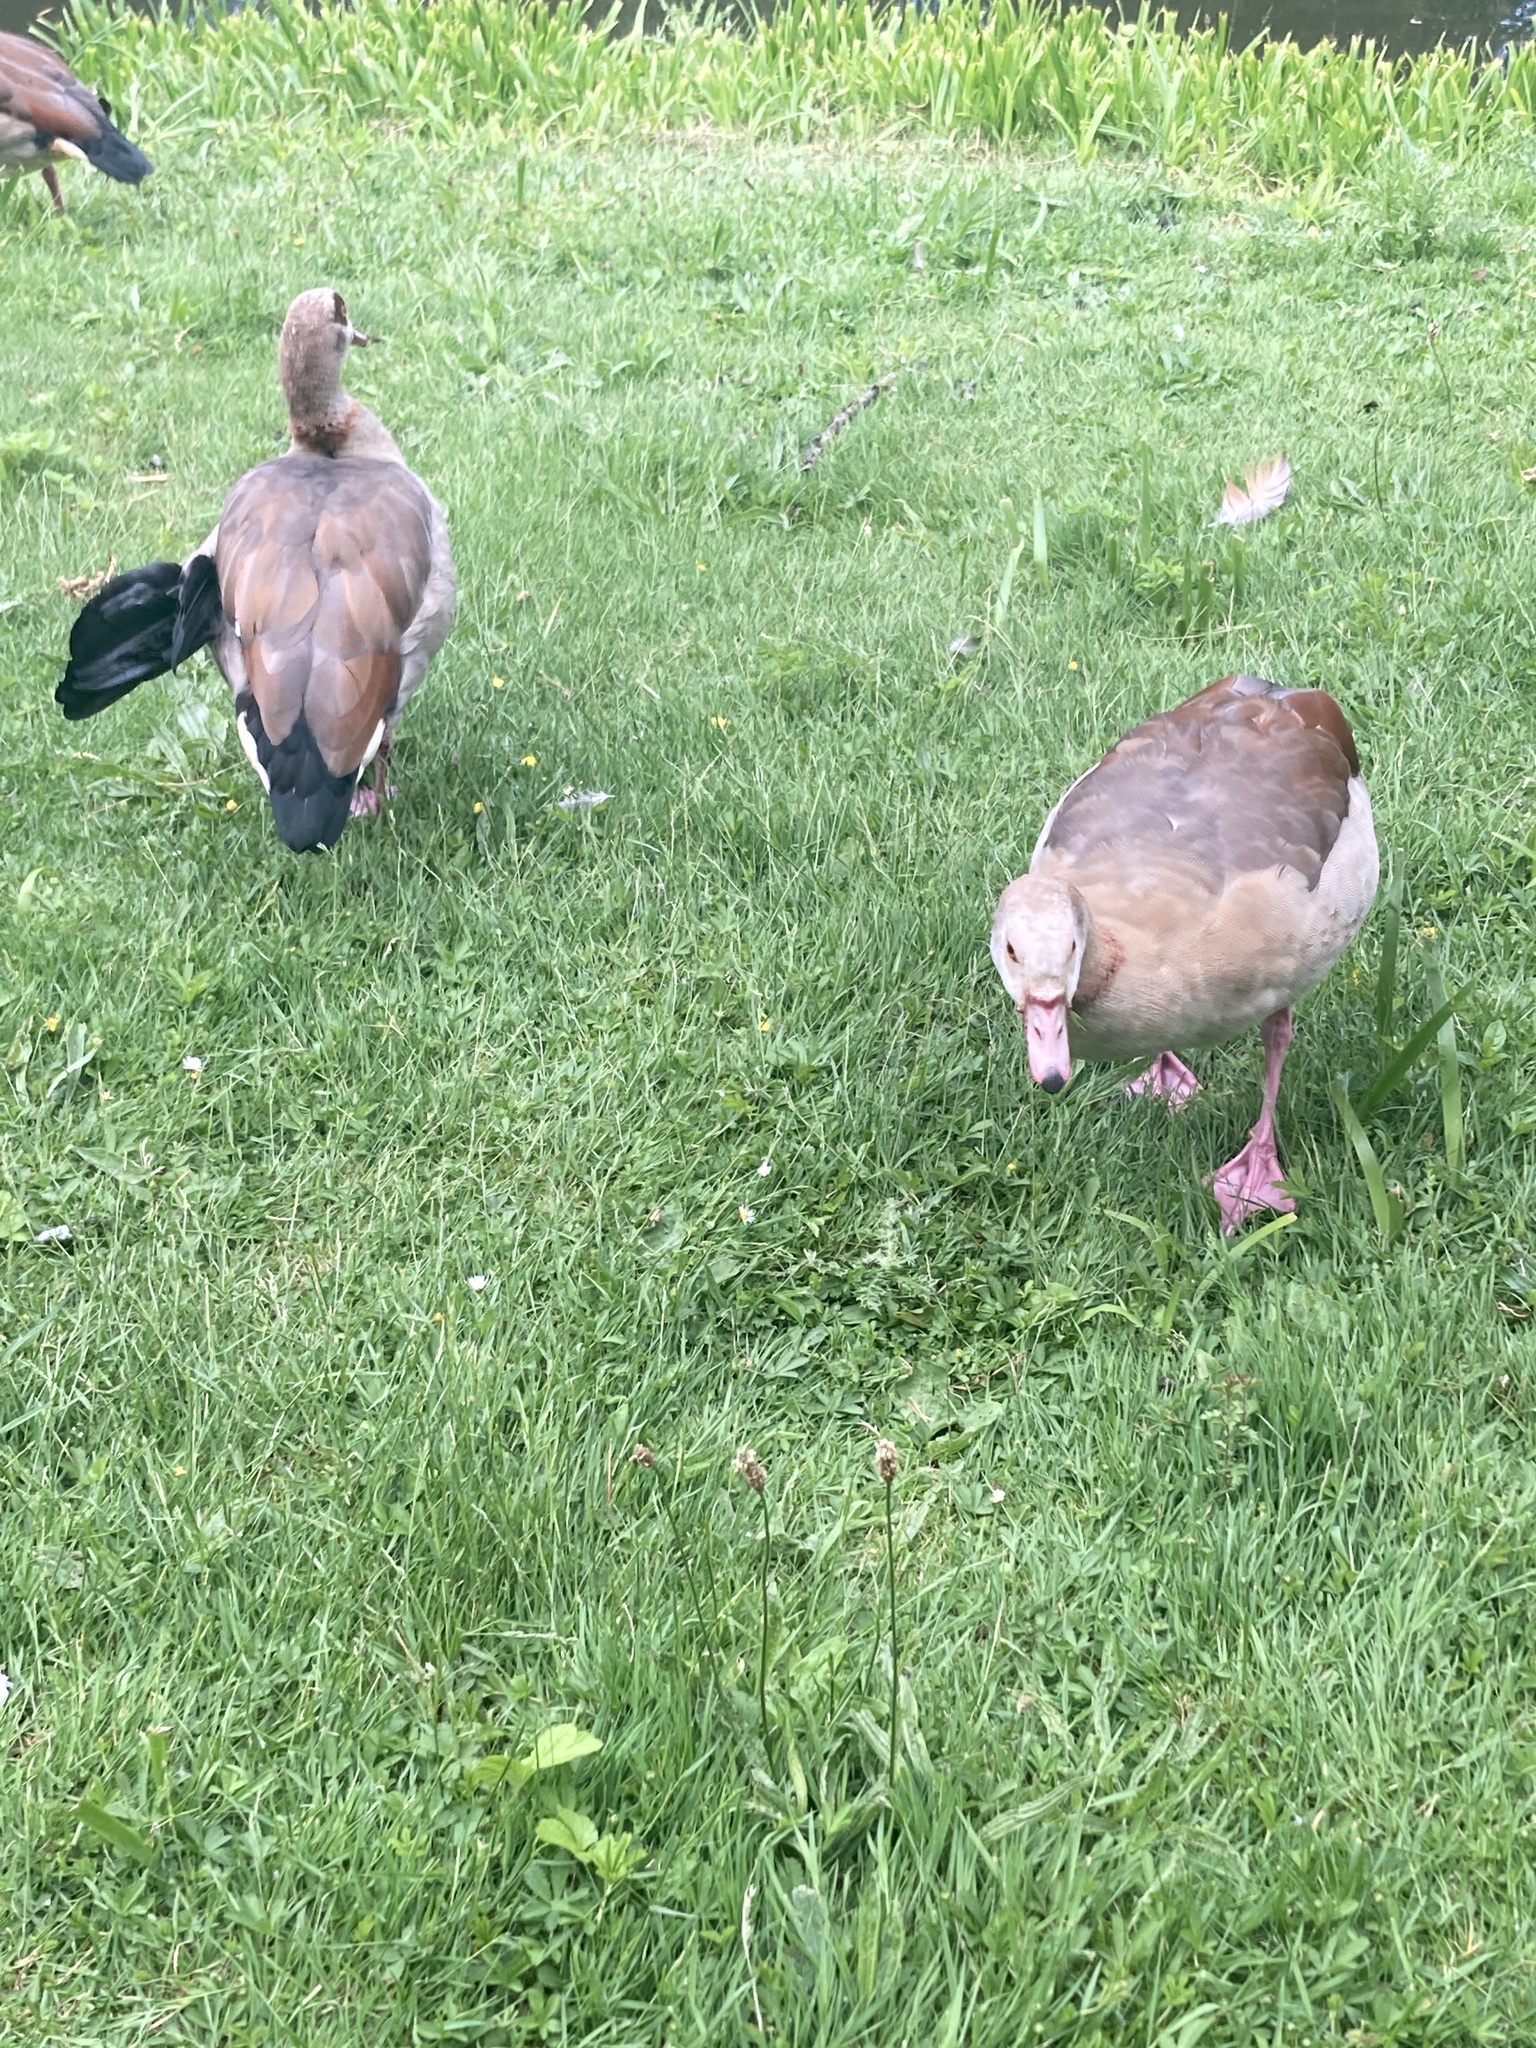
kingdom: Animalia
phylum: Chordata
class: Aves
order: Anseriformes
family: Anatidae
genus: Alopochen
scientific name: Alopochen aegyptiaca
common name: Egyptian goose
